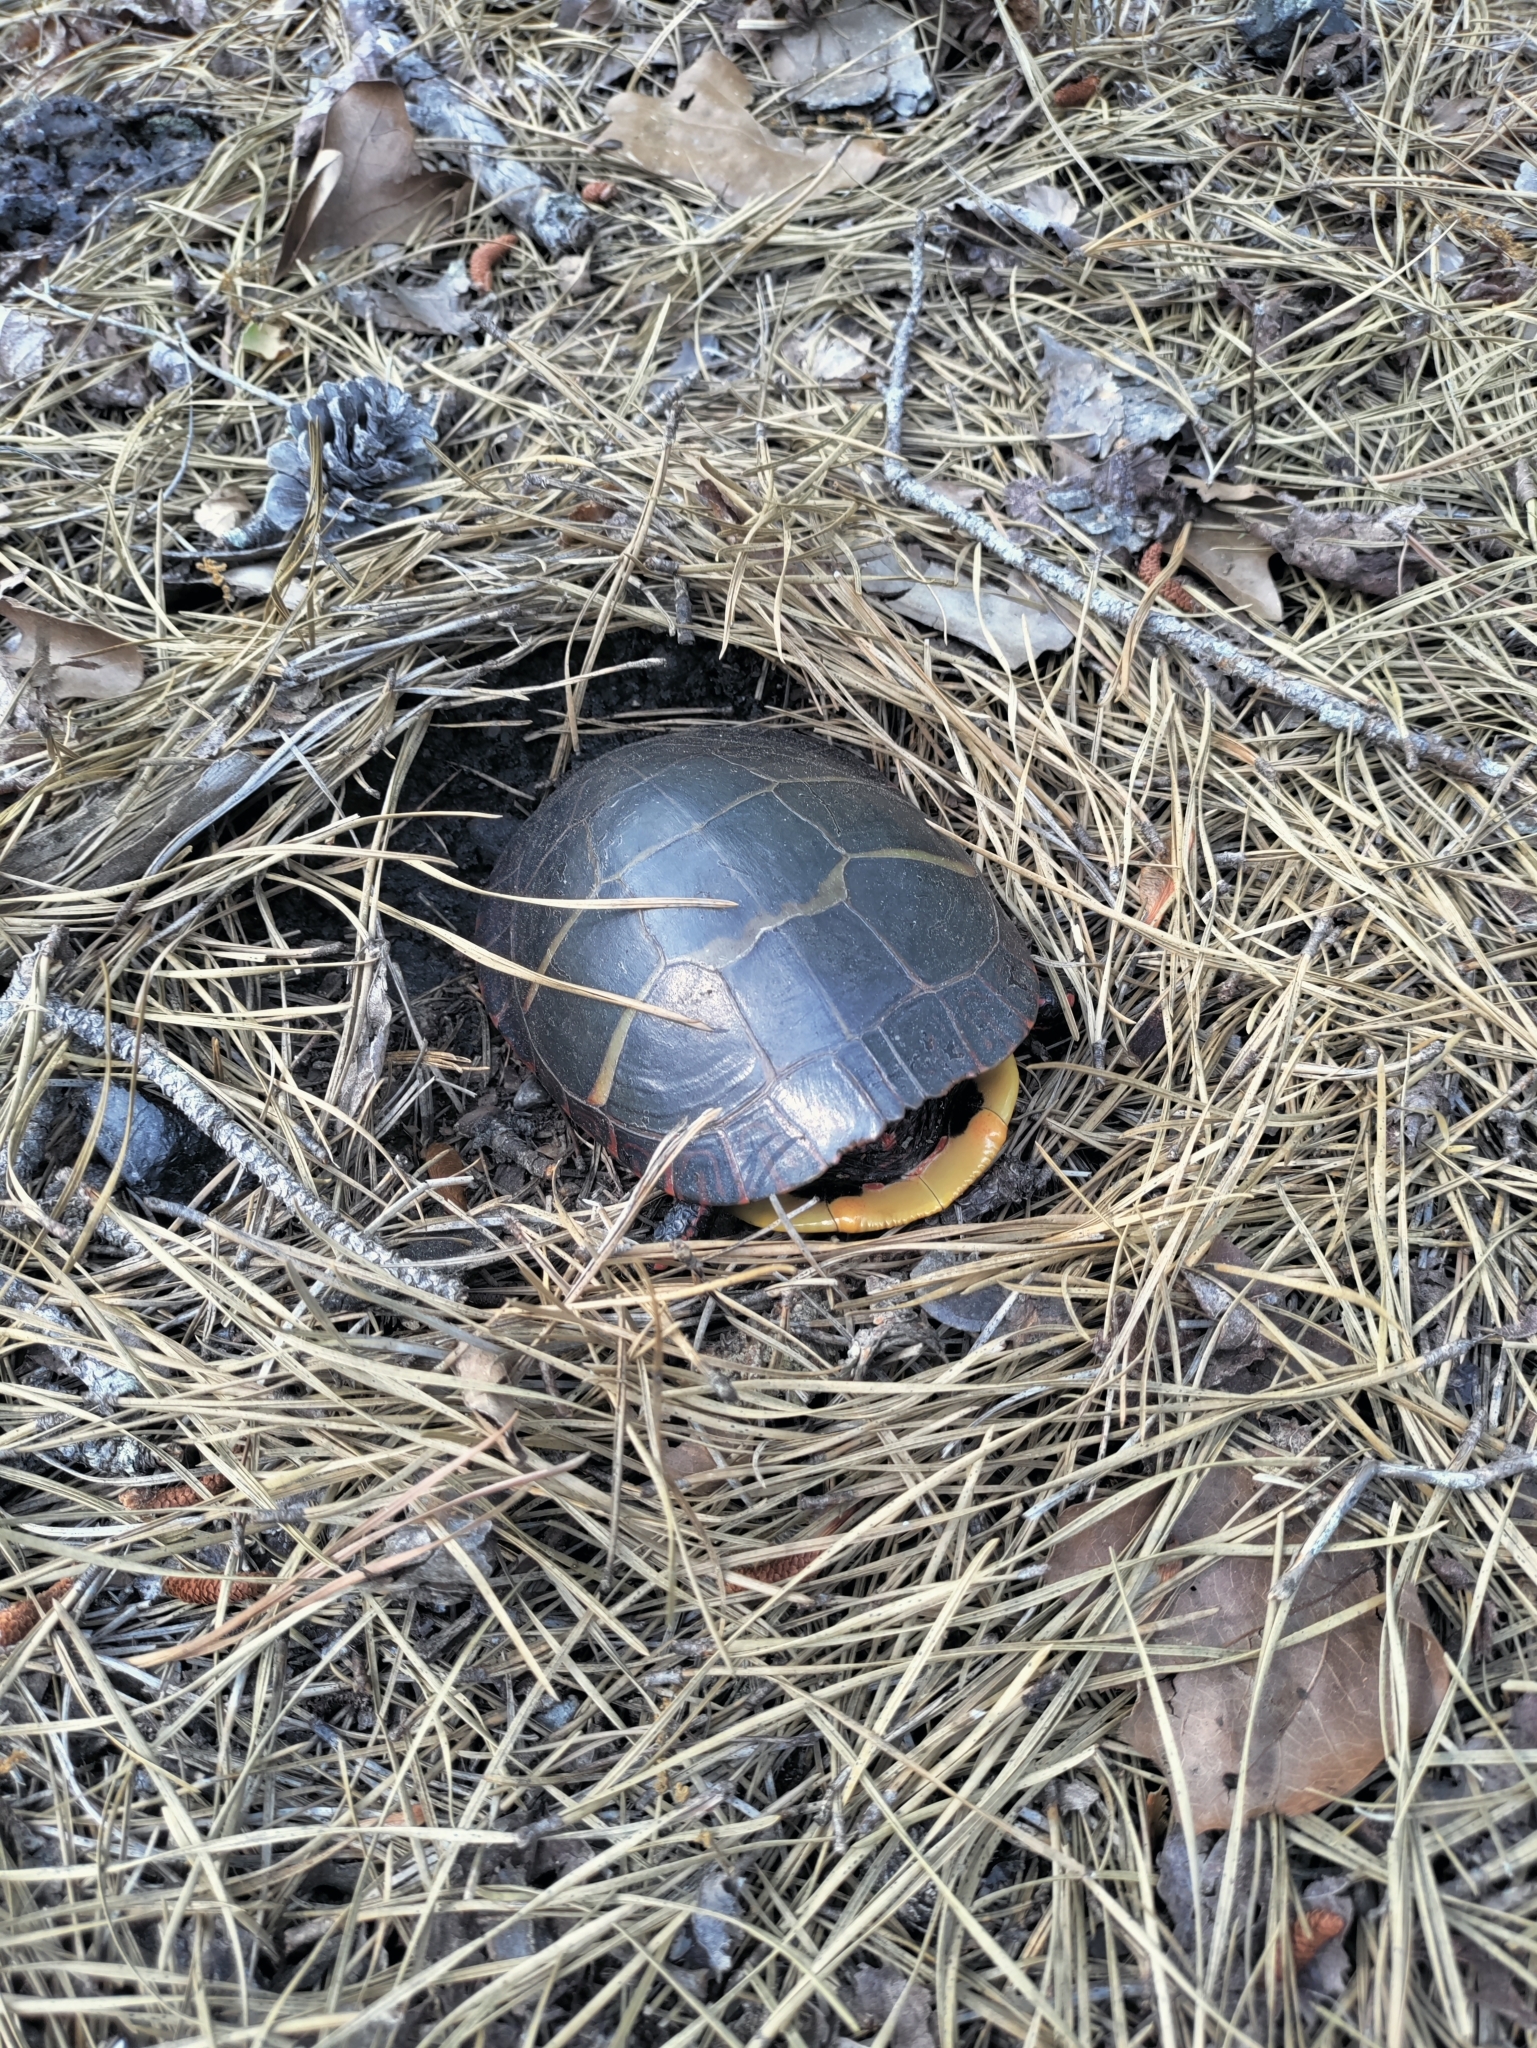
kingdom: Animalia
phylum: Chordata
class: Testudines
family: Emydidae
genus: Chrysemys
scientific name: Chrysemys picta
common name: Painted turtle
